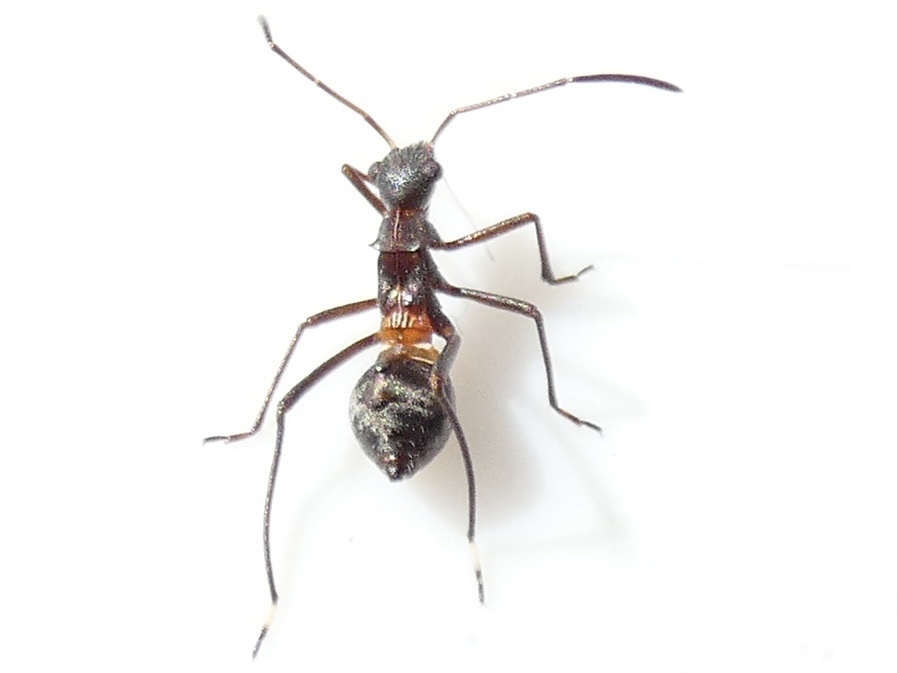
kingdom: Animalia
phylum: Arthropoda
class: Insecta
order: Hemiptera
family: Alydidae
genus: Alydus
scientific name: Alydus calcaratus
